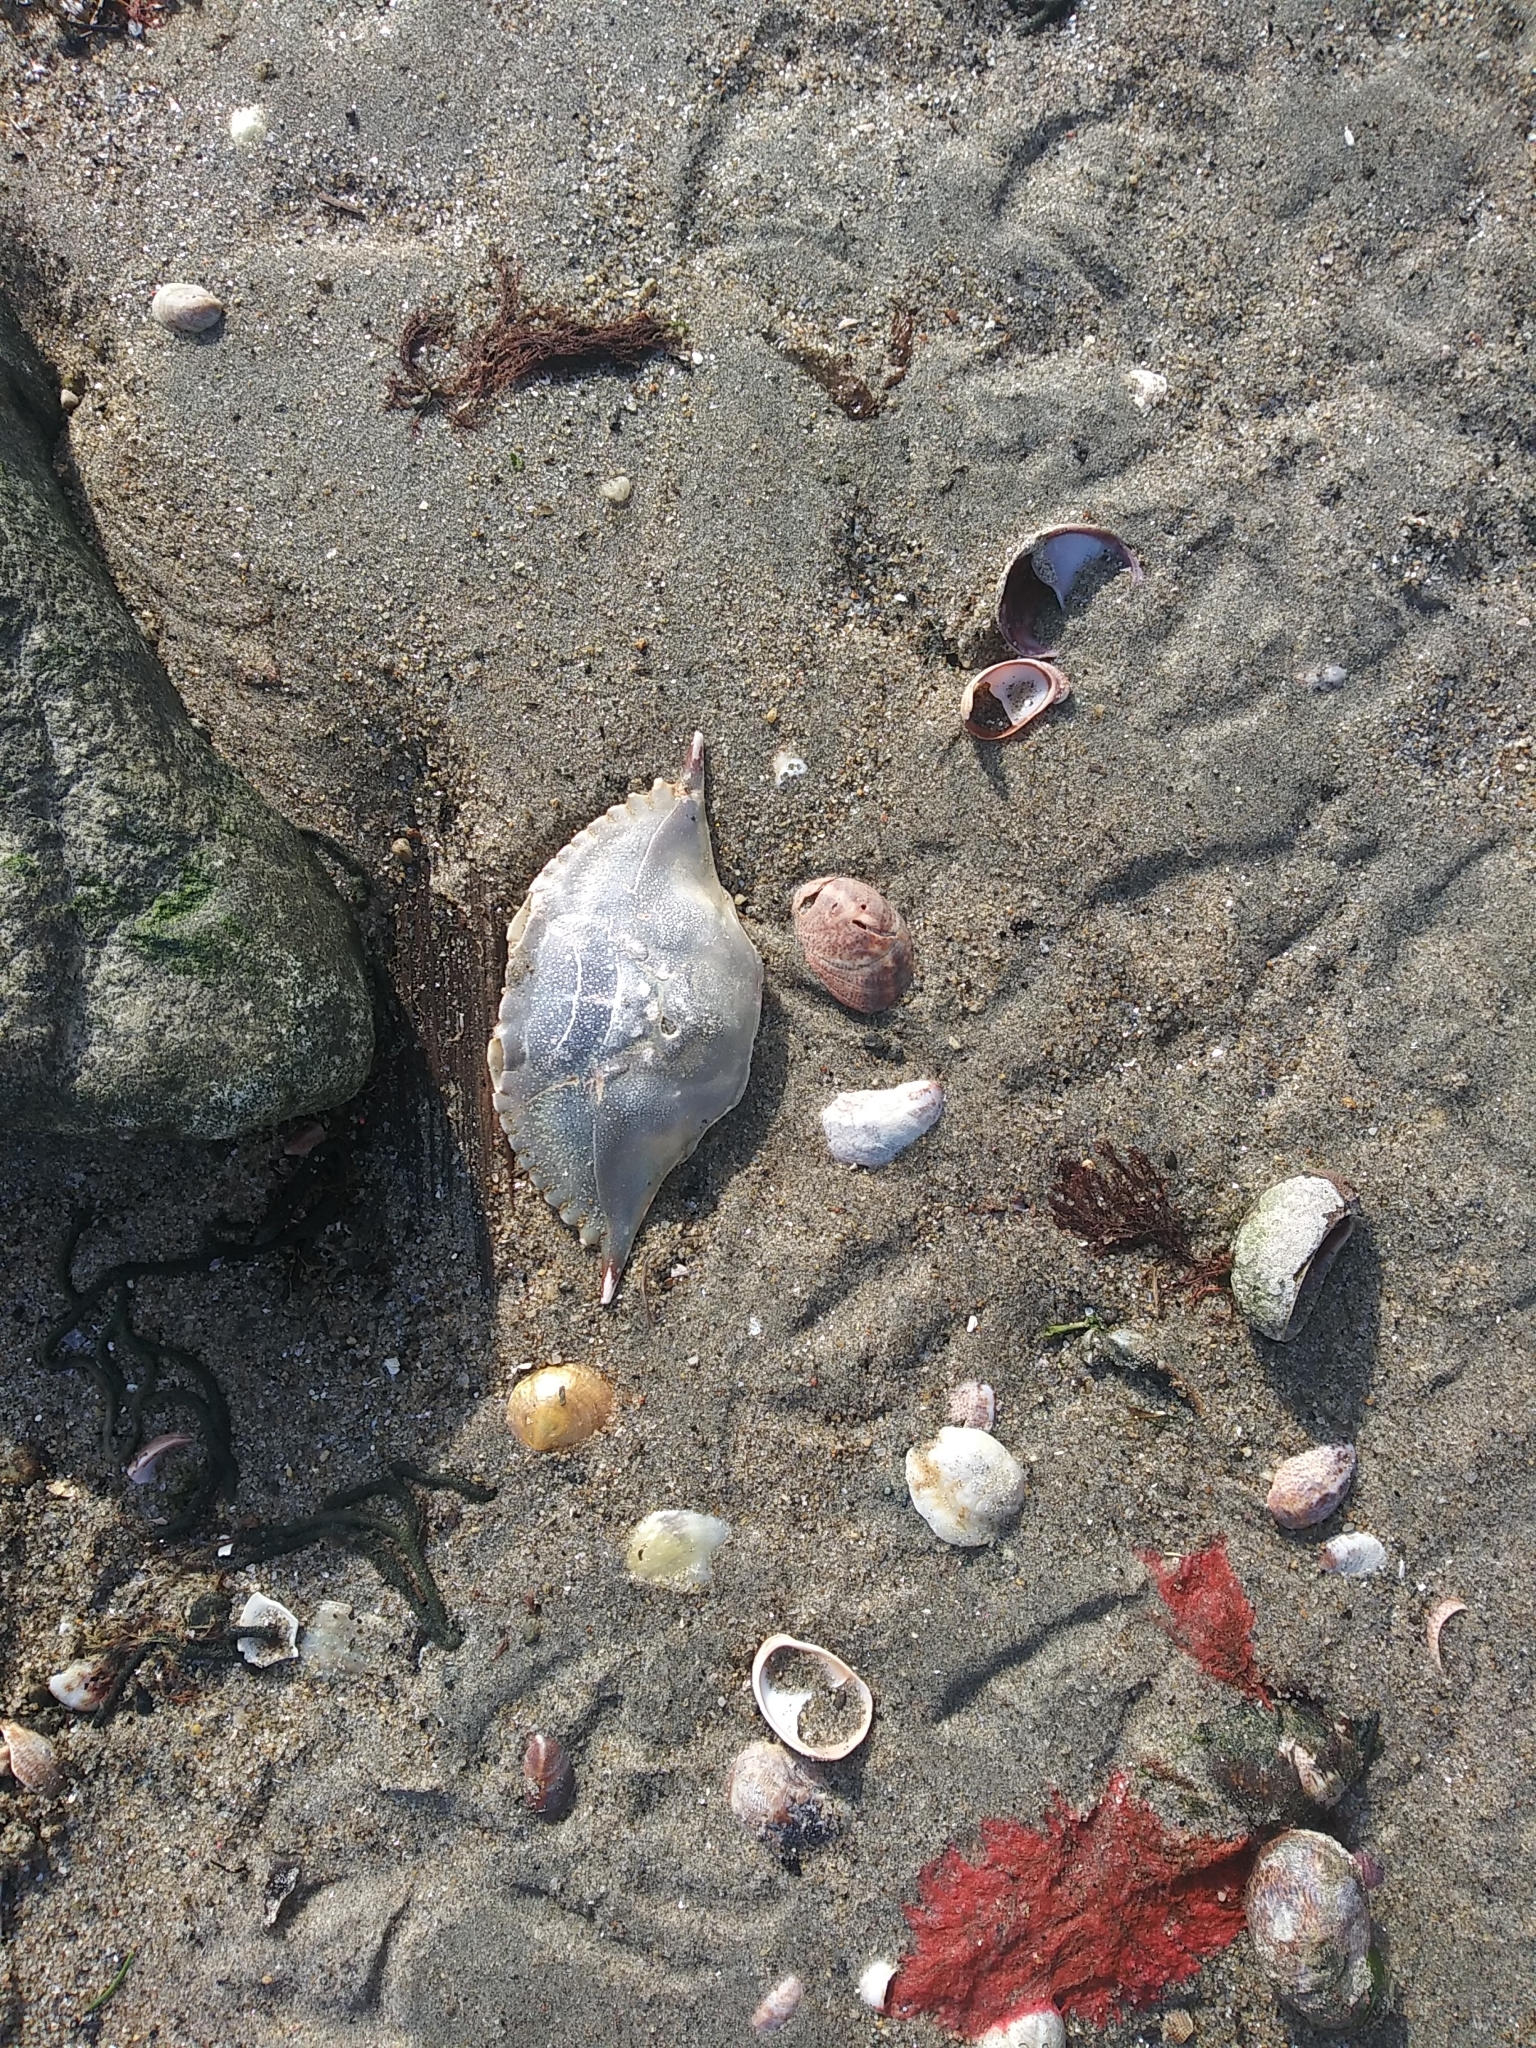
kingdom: Animalia
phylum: Arthropoda
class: Malacostraca
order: Decapoda
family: Portunidae
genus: Callinectes
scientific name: Callinectes sapidus
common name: Blue crab
